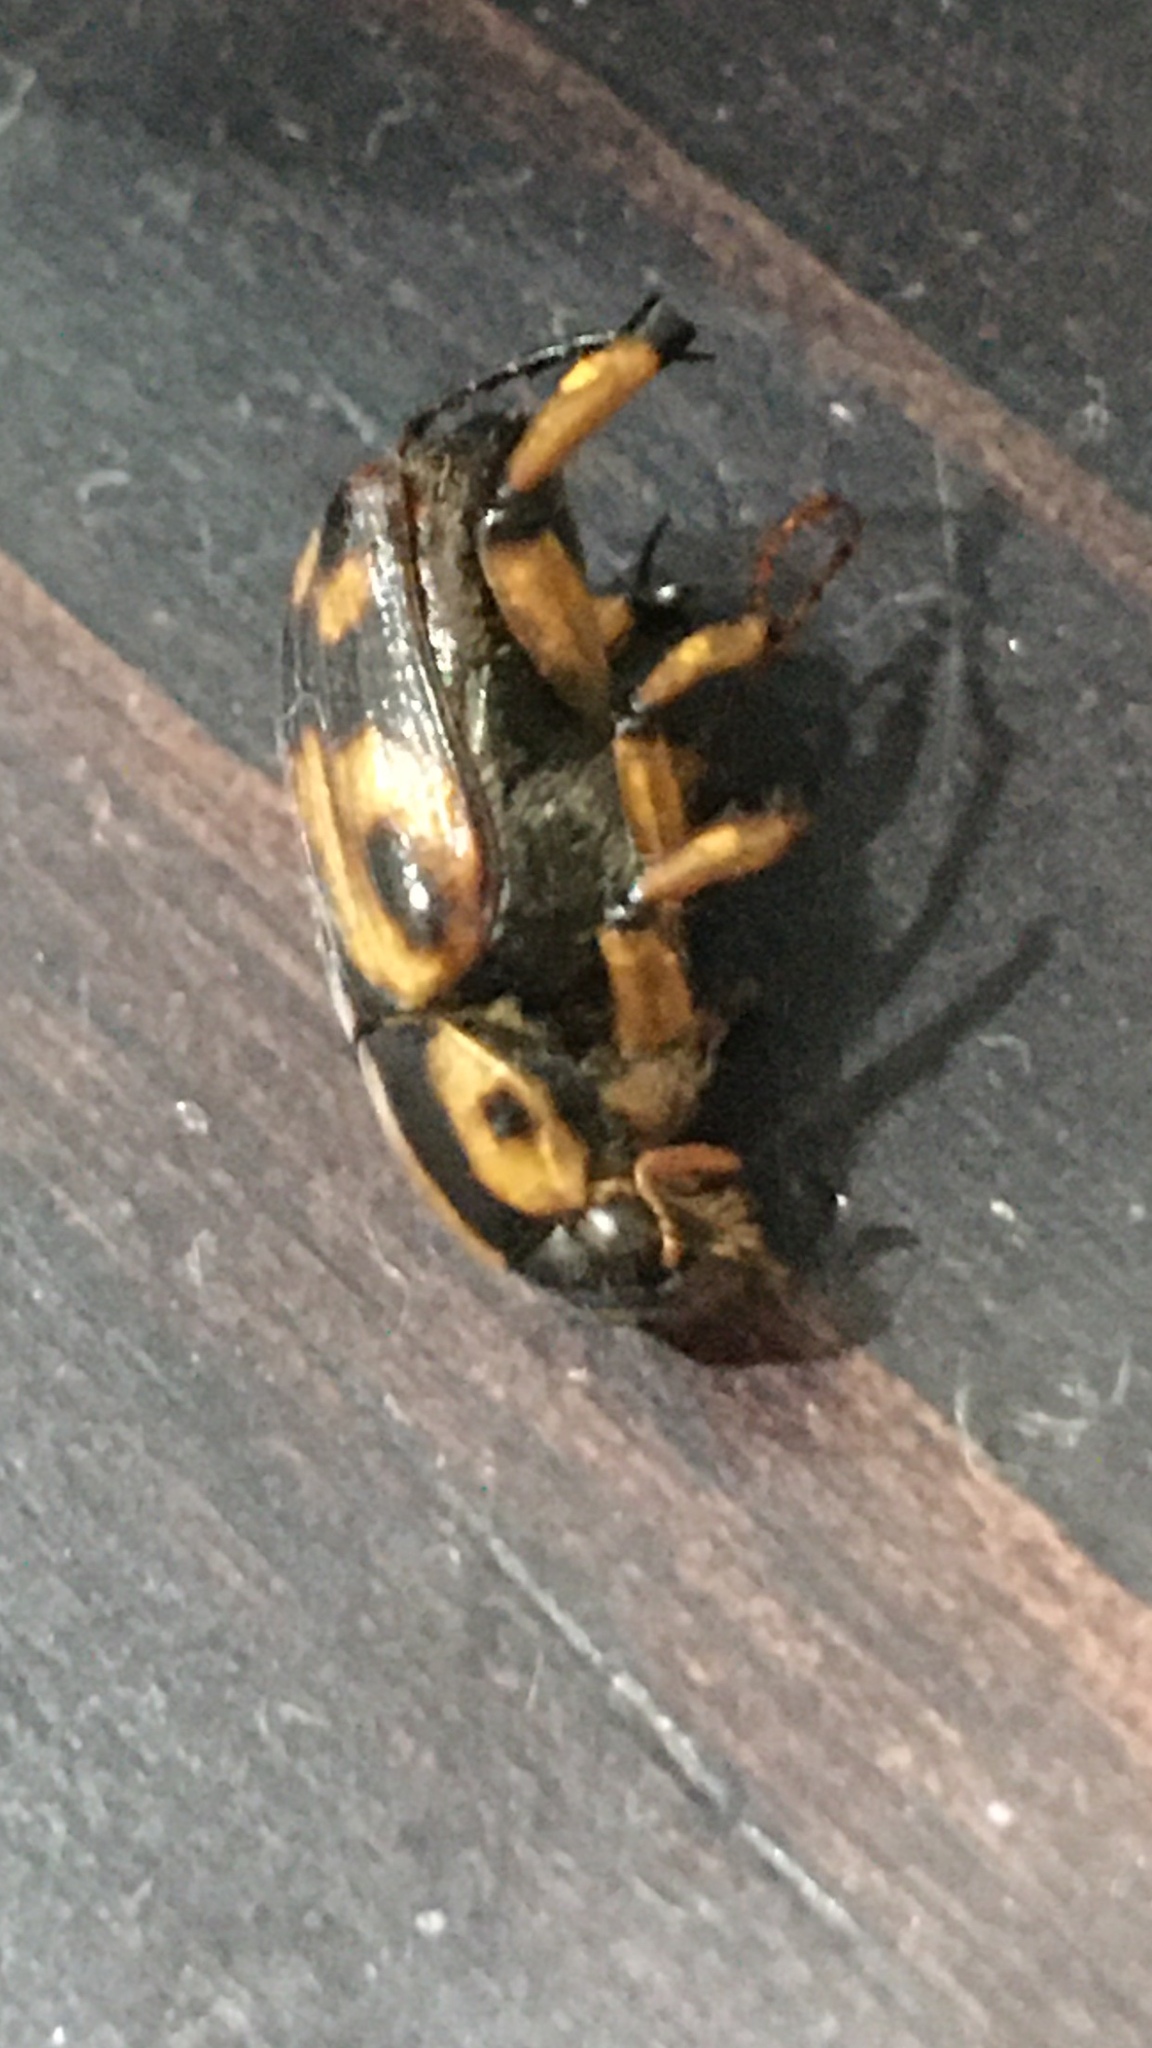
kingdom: Animalia
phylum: Arthropoda
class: Insecta
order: Coleoptera
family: Scarabaeidae
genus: Stripsipher
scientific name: Stripsipher zebra
